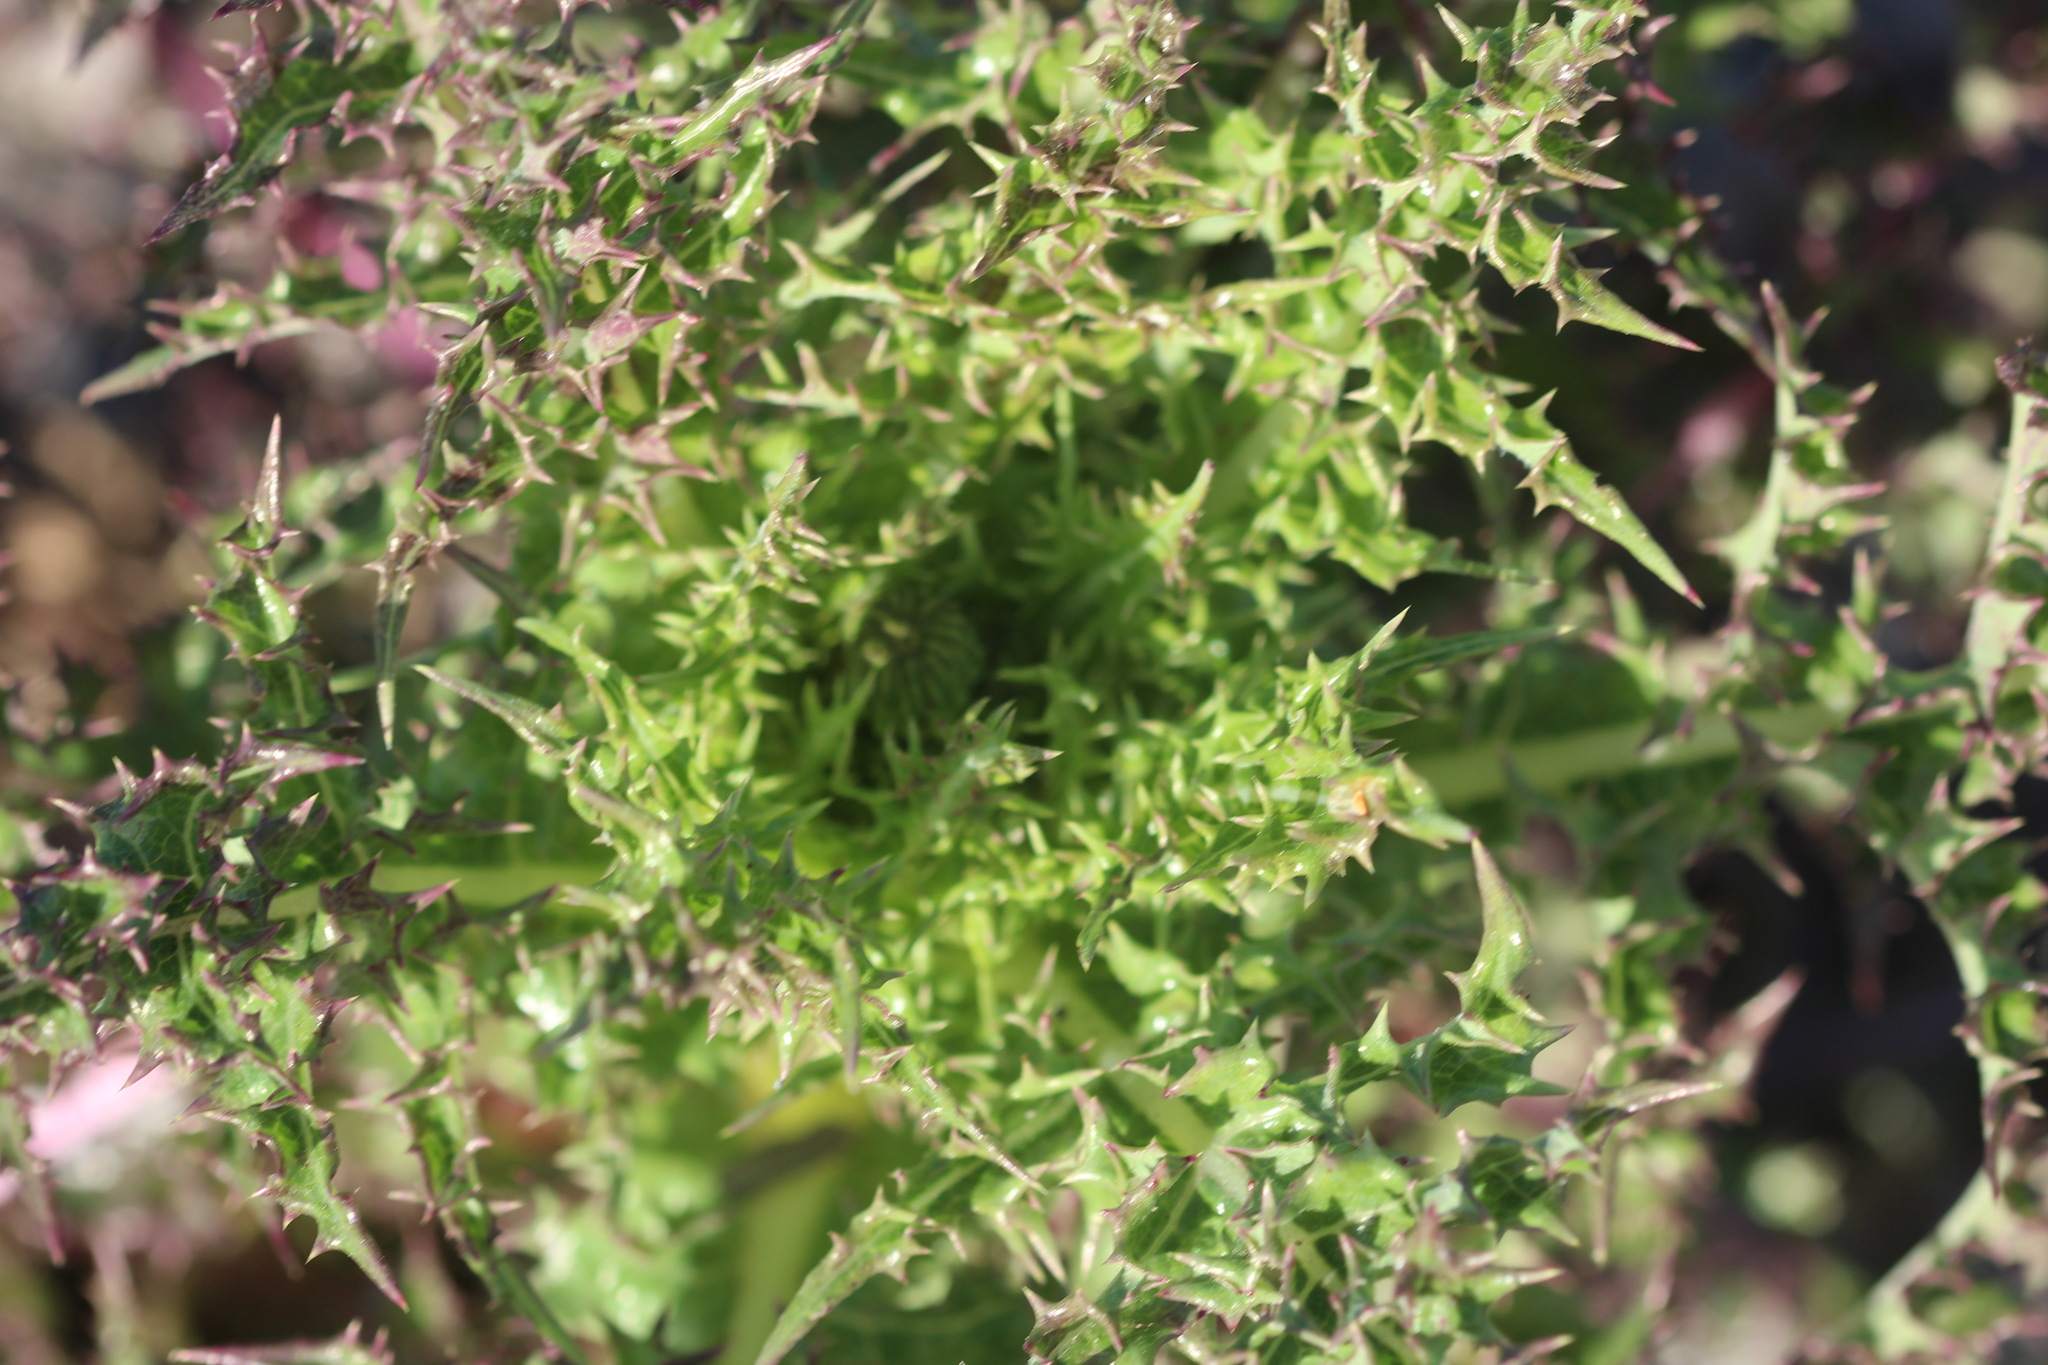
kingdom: Plantae
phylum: Tracheophyta
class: Magnoliopsida
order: Asterales
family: Asteraceae
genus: Sonchus
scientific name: Sonchus asper
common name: Prickly sow-thistle
